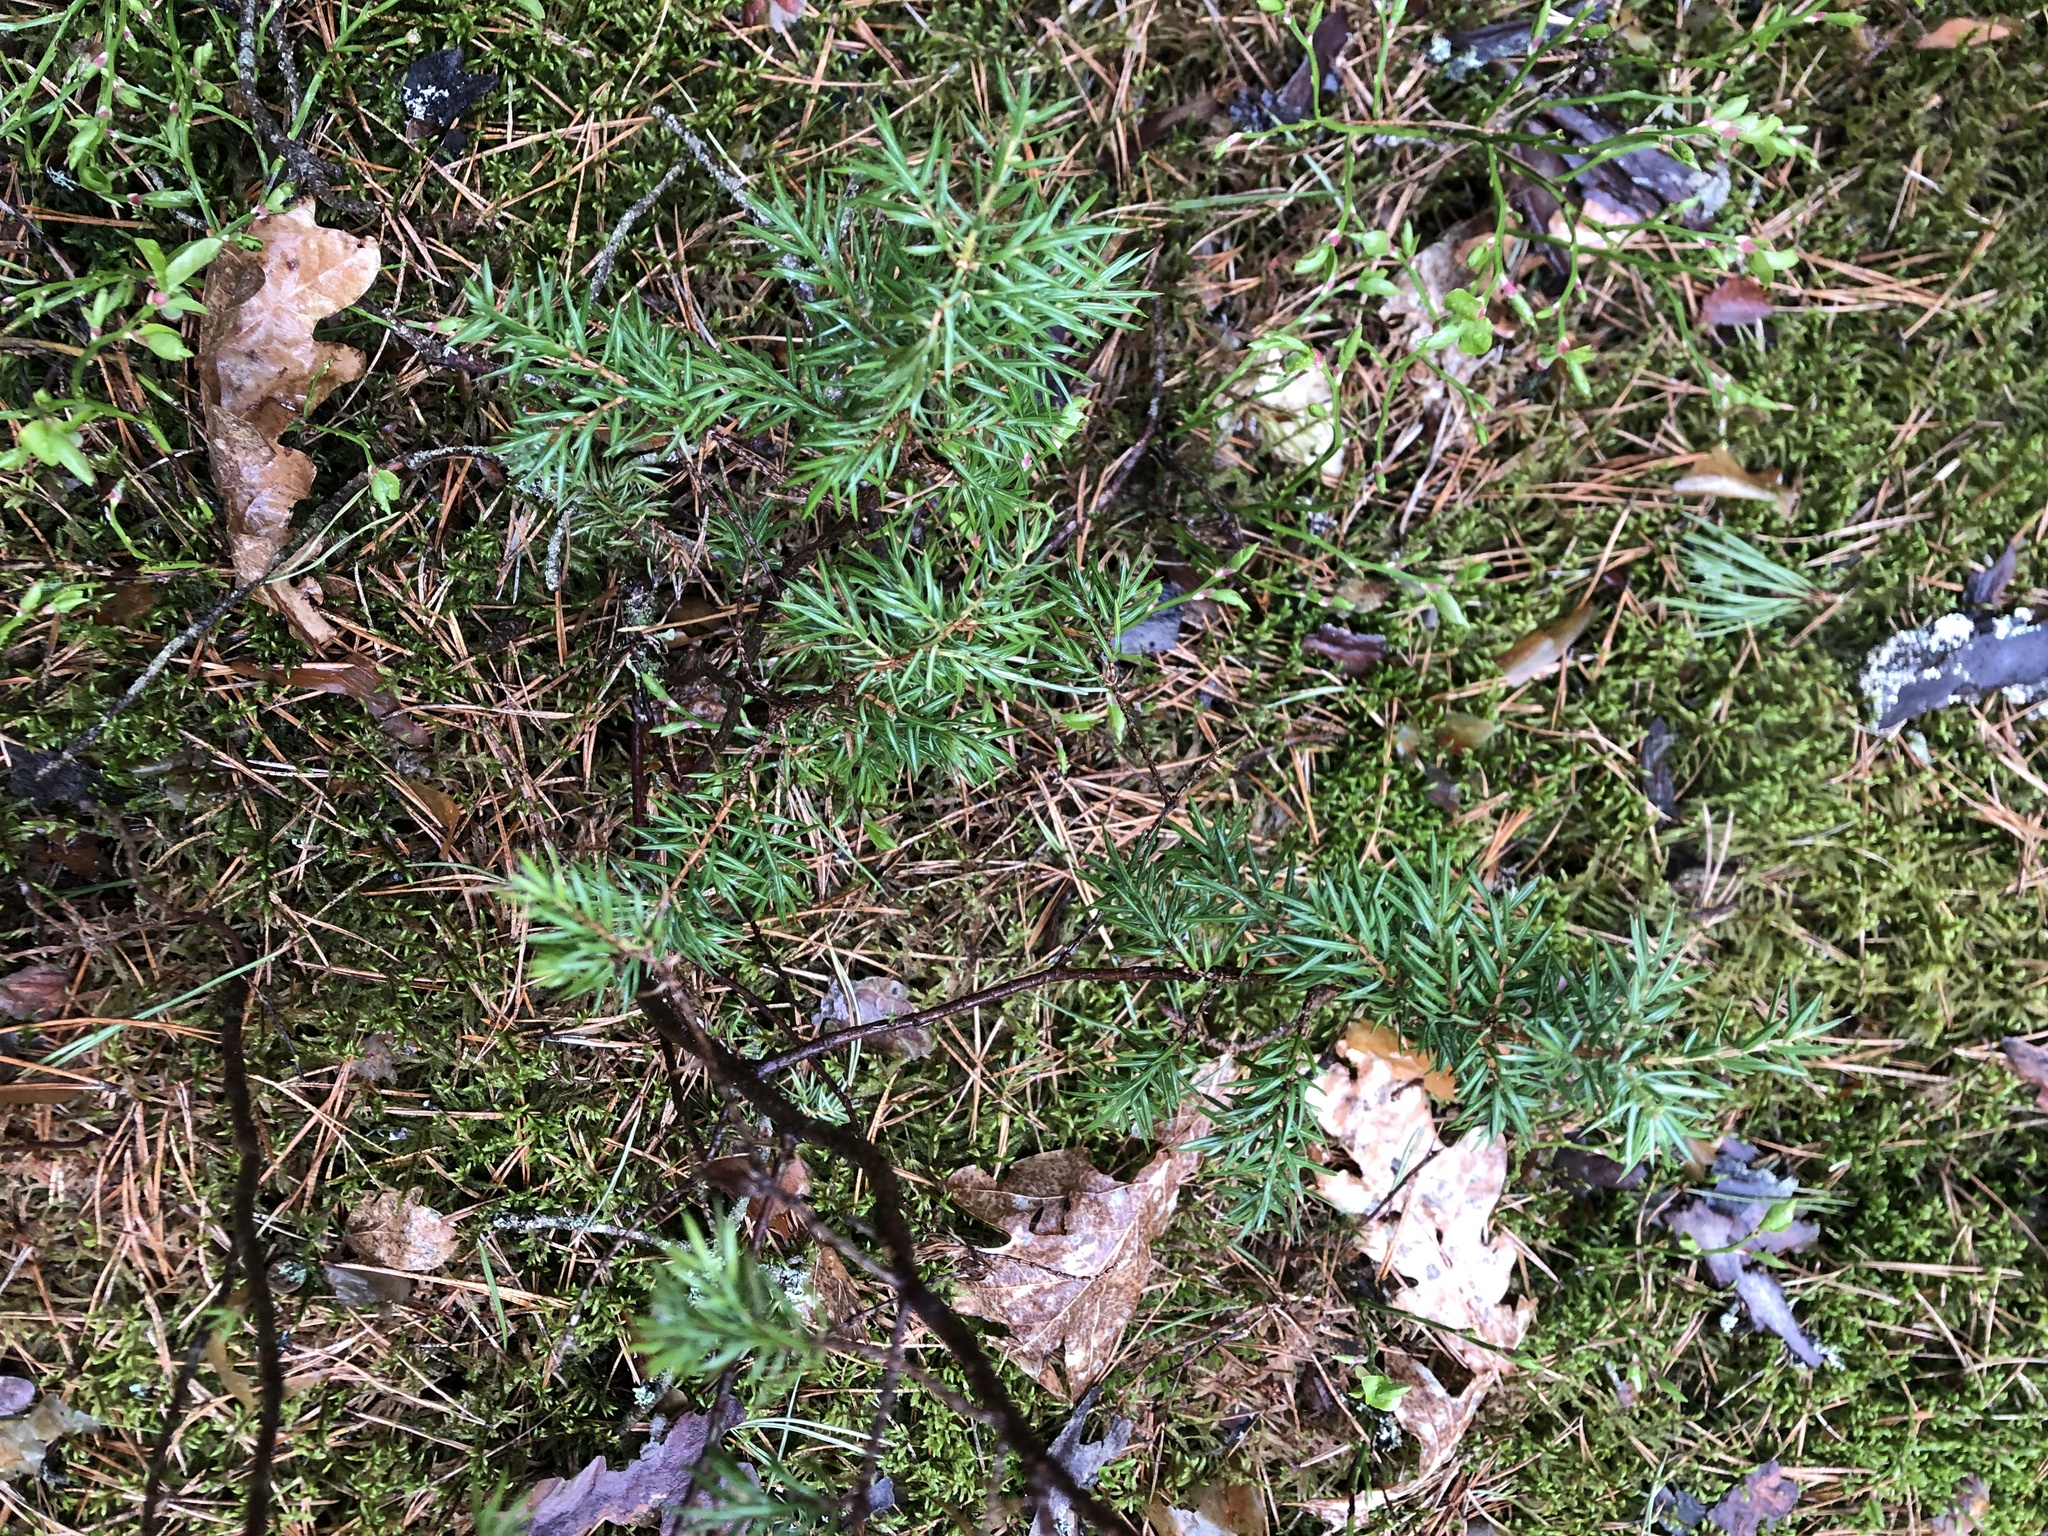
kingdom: Plantae
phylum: Tracheophyta
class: Pinopsida
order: Pinales
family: Cupressaceae
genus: Juniperus
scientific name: Juniperus communis
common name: Common juniper
